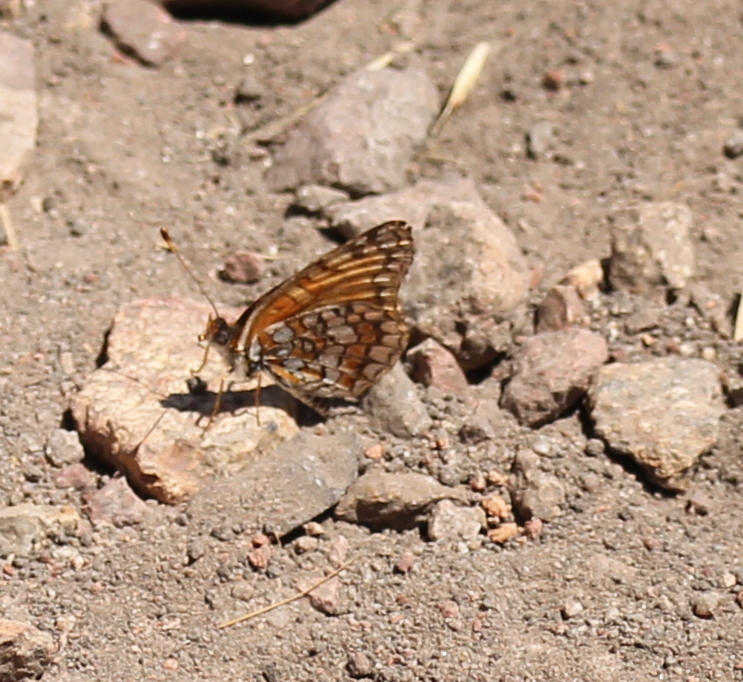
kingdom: Animalia
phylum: Arthropoda
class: Insecta
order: Lepidoptera
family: Nymphalidae
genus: Chlosyne
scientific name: Chlosyne gabbii
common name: Gabb's checkerspot
